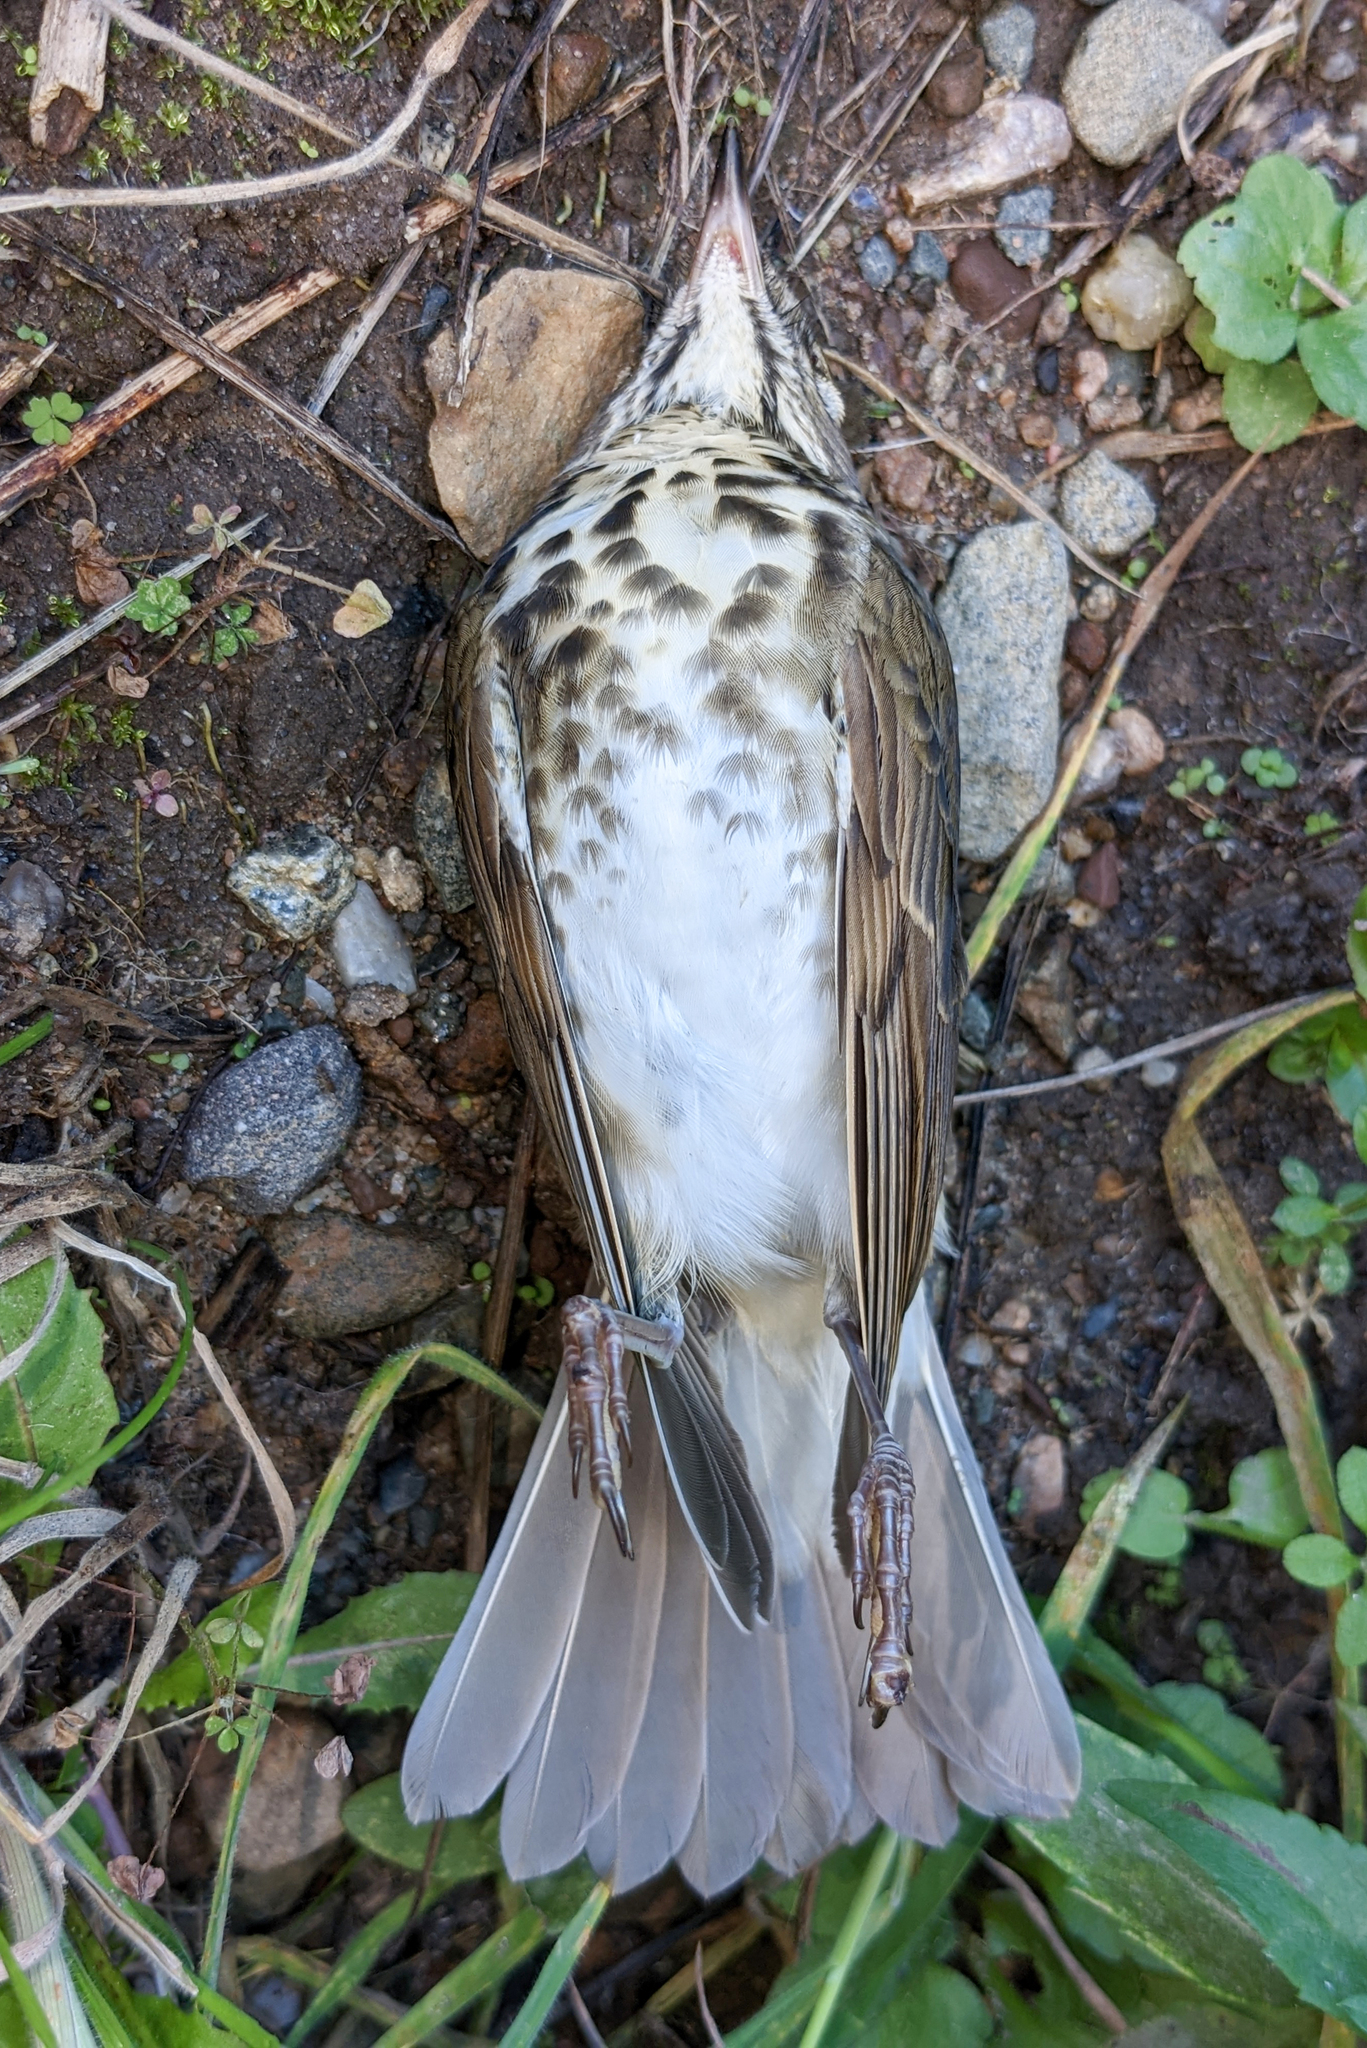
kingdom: Animalia
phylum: Chordata
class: Aves
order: Passeriformes
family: Turdidae
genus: Catharus
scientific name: Catharus guttatus
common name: Hermit thrush
